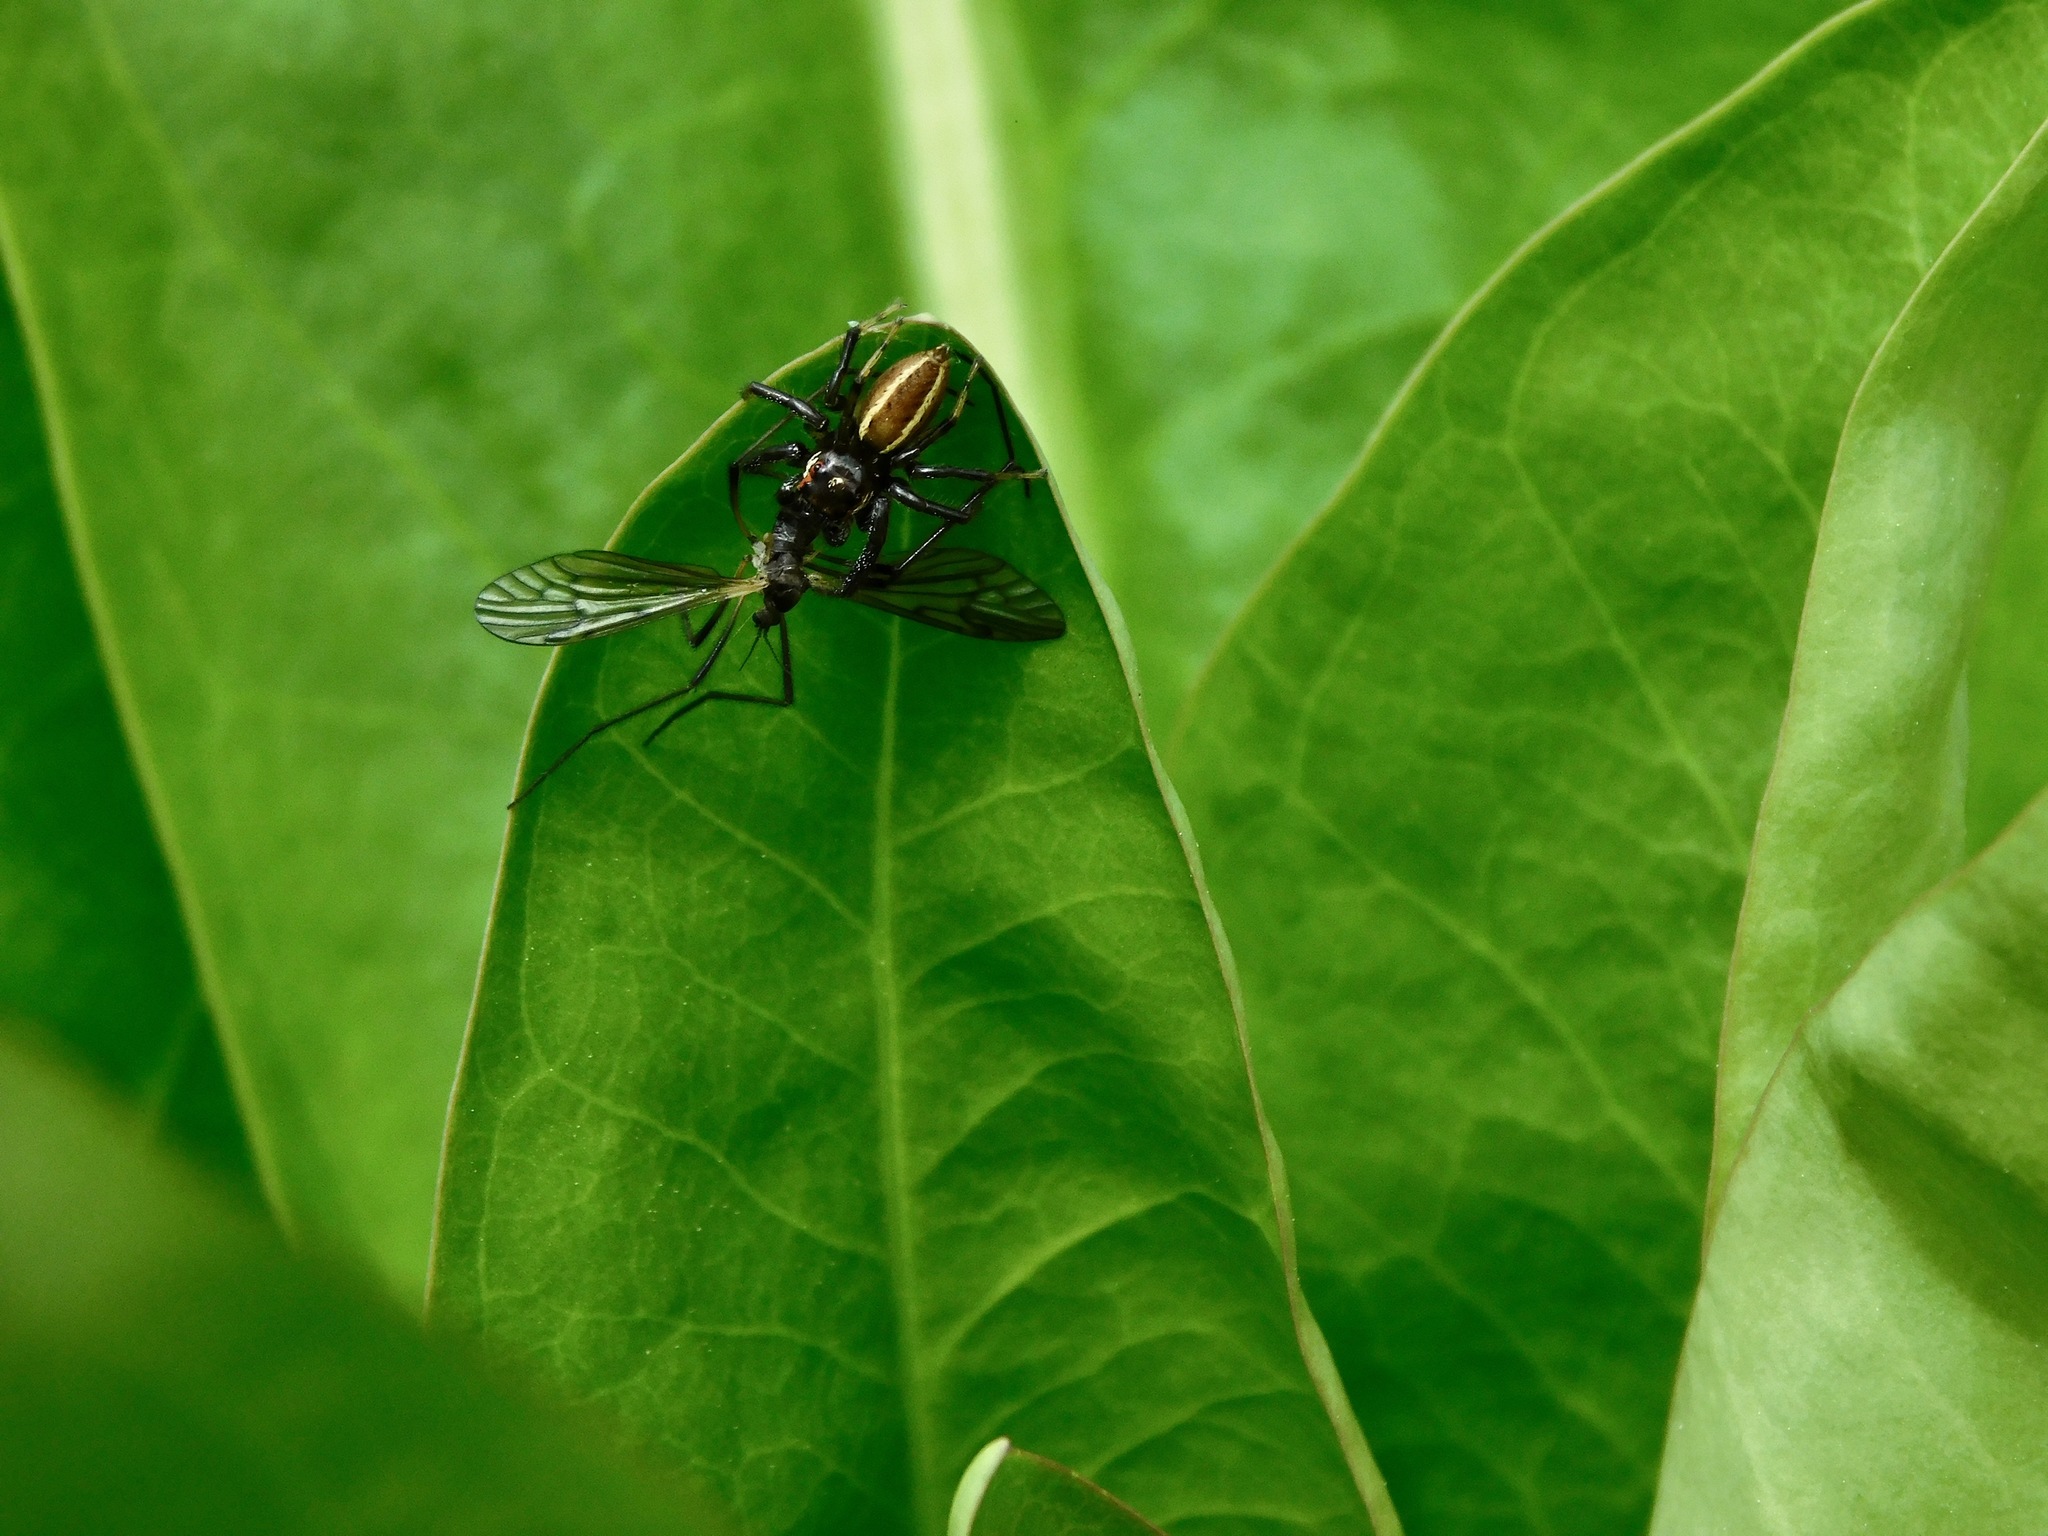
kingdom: Plantae
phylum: Tracheophyta
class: Magnoliopsida
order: Gentianales
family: Gentianaceae
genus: Frasera
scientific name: Frasera caroliniensis
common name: American columbo
